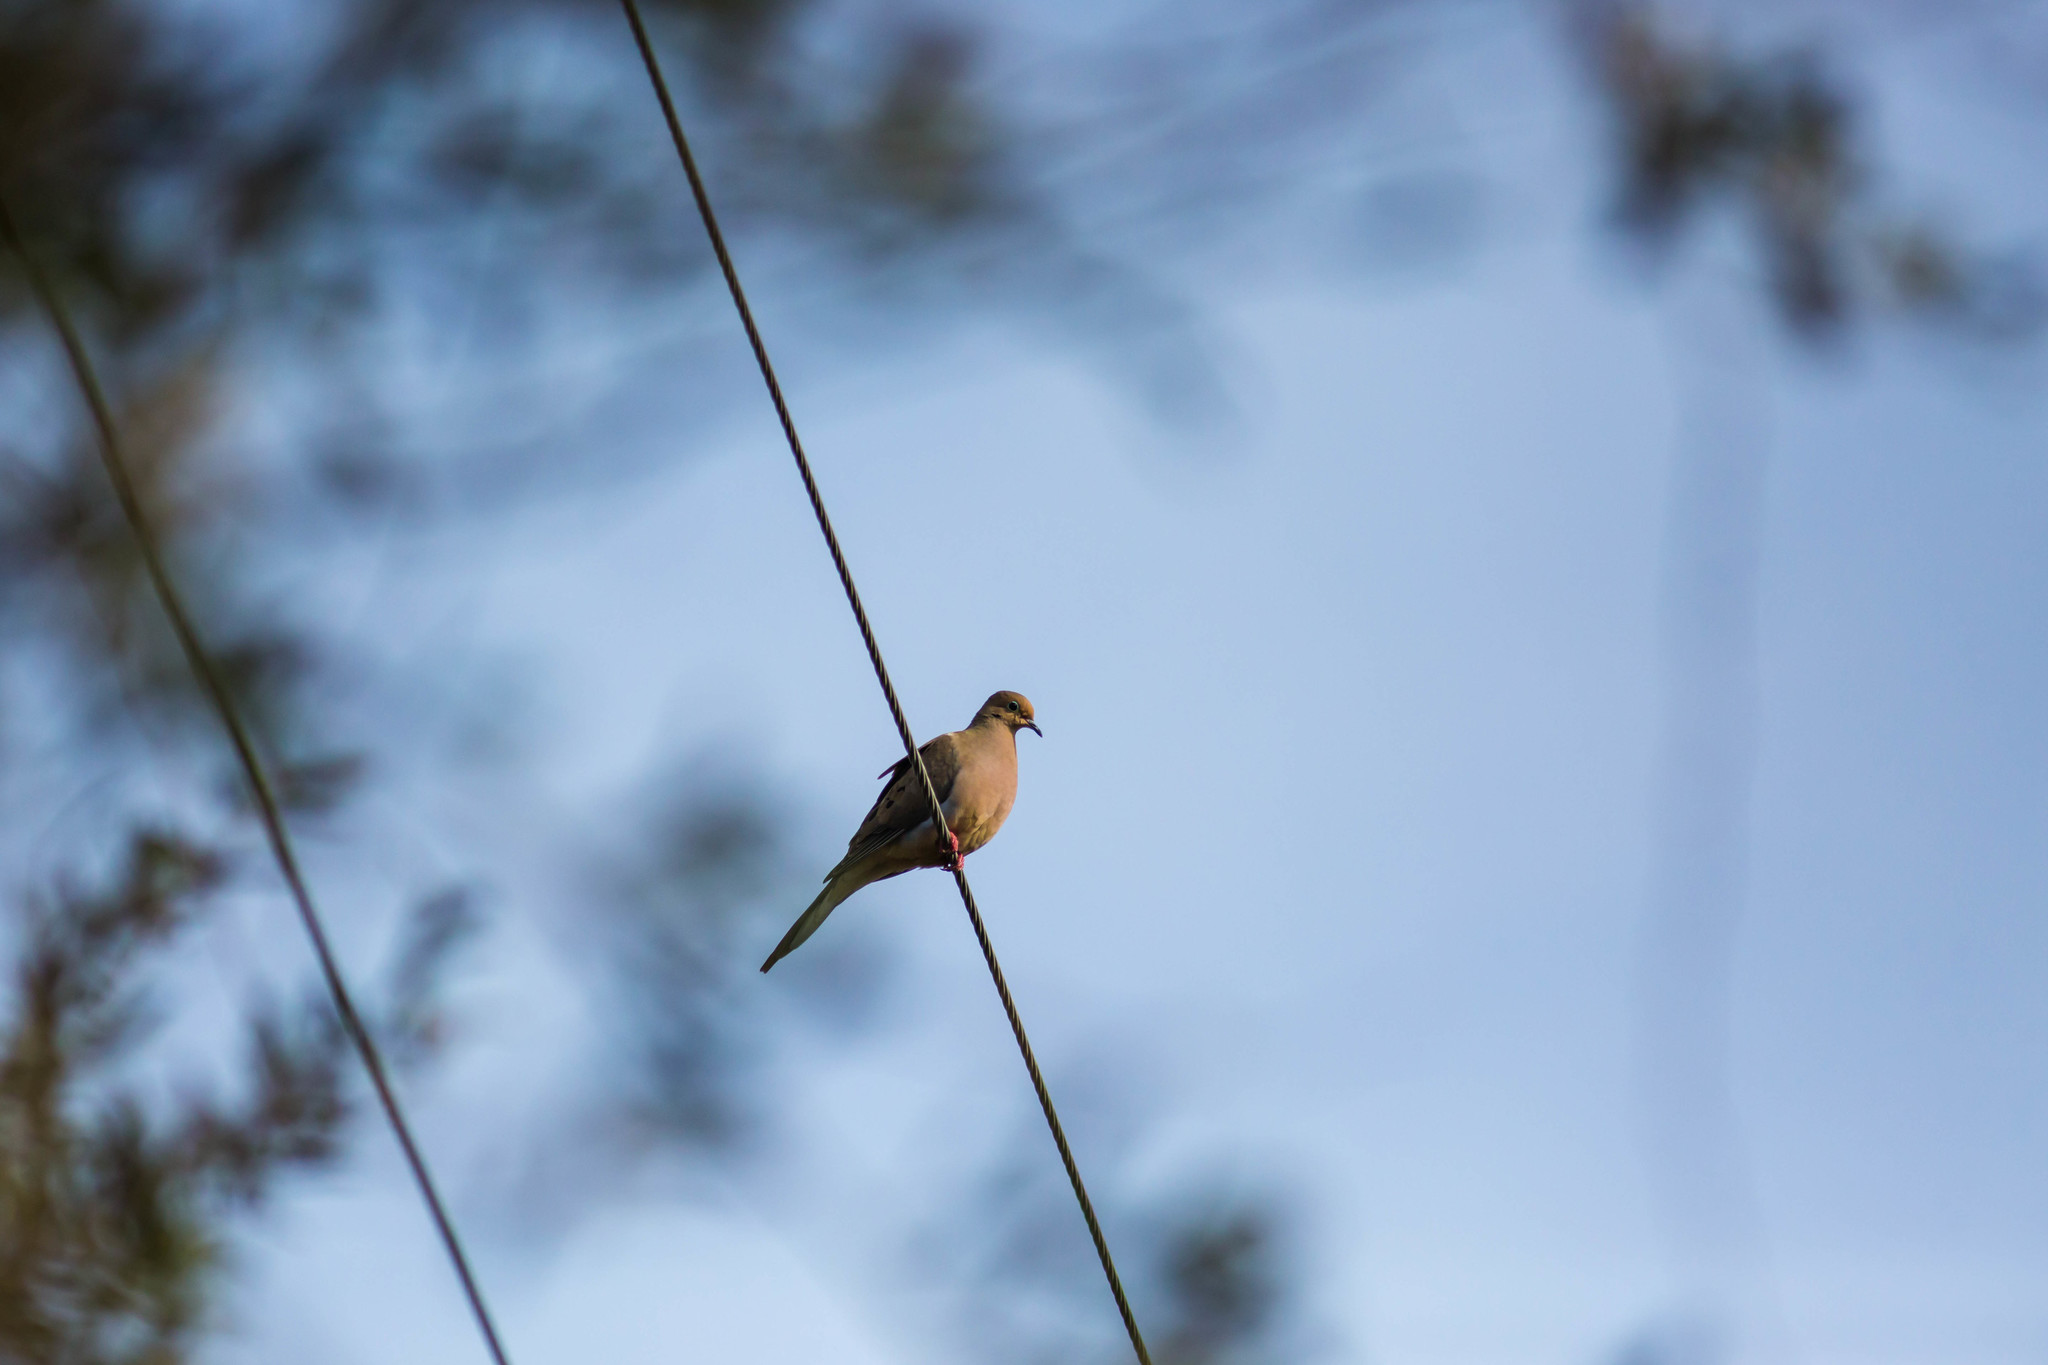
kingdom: Animalia
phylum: Chordata
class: Aves
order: Columbiformes
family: Columbidae
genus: Zenaida
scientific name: Zenaida macroura
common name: Mourning dove
